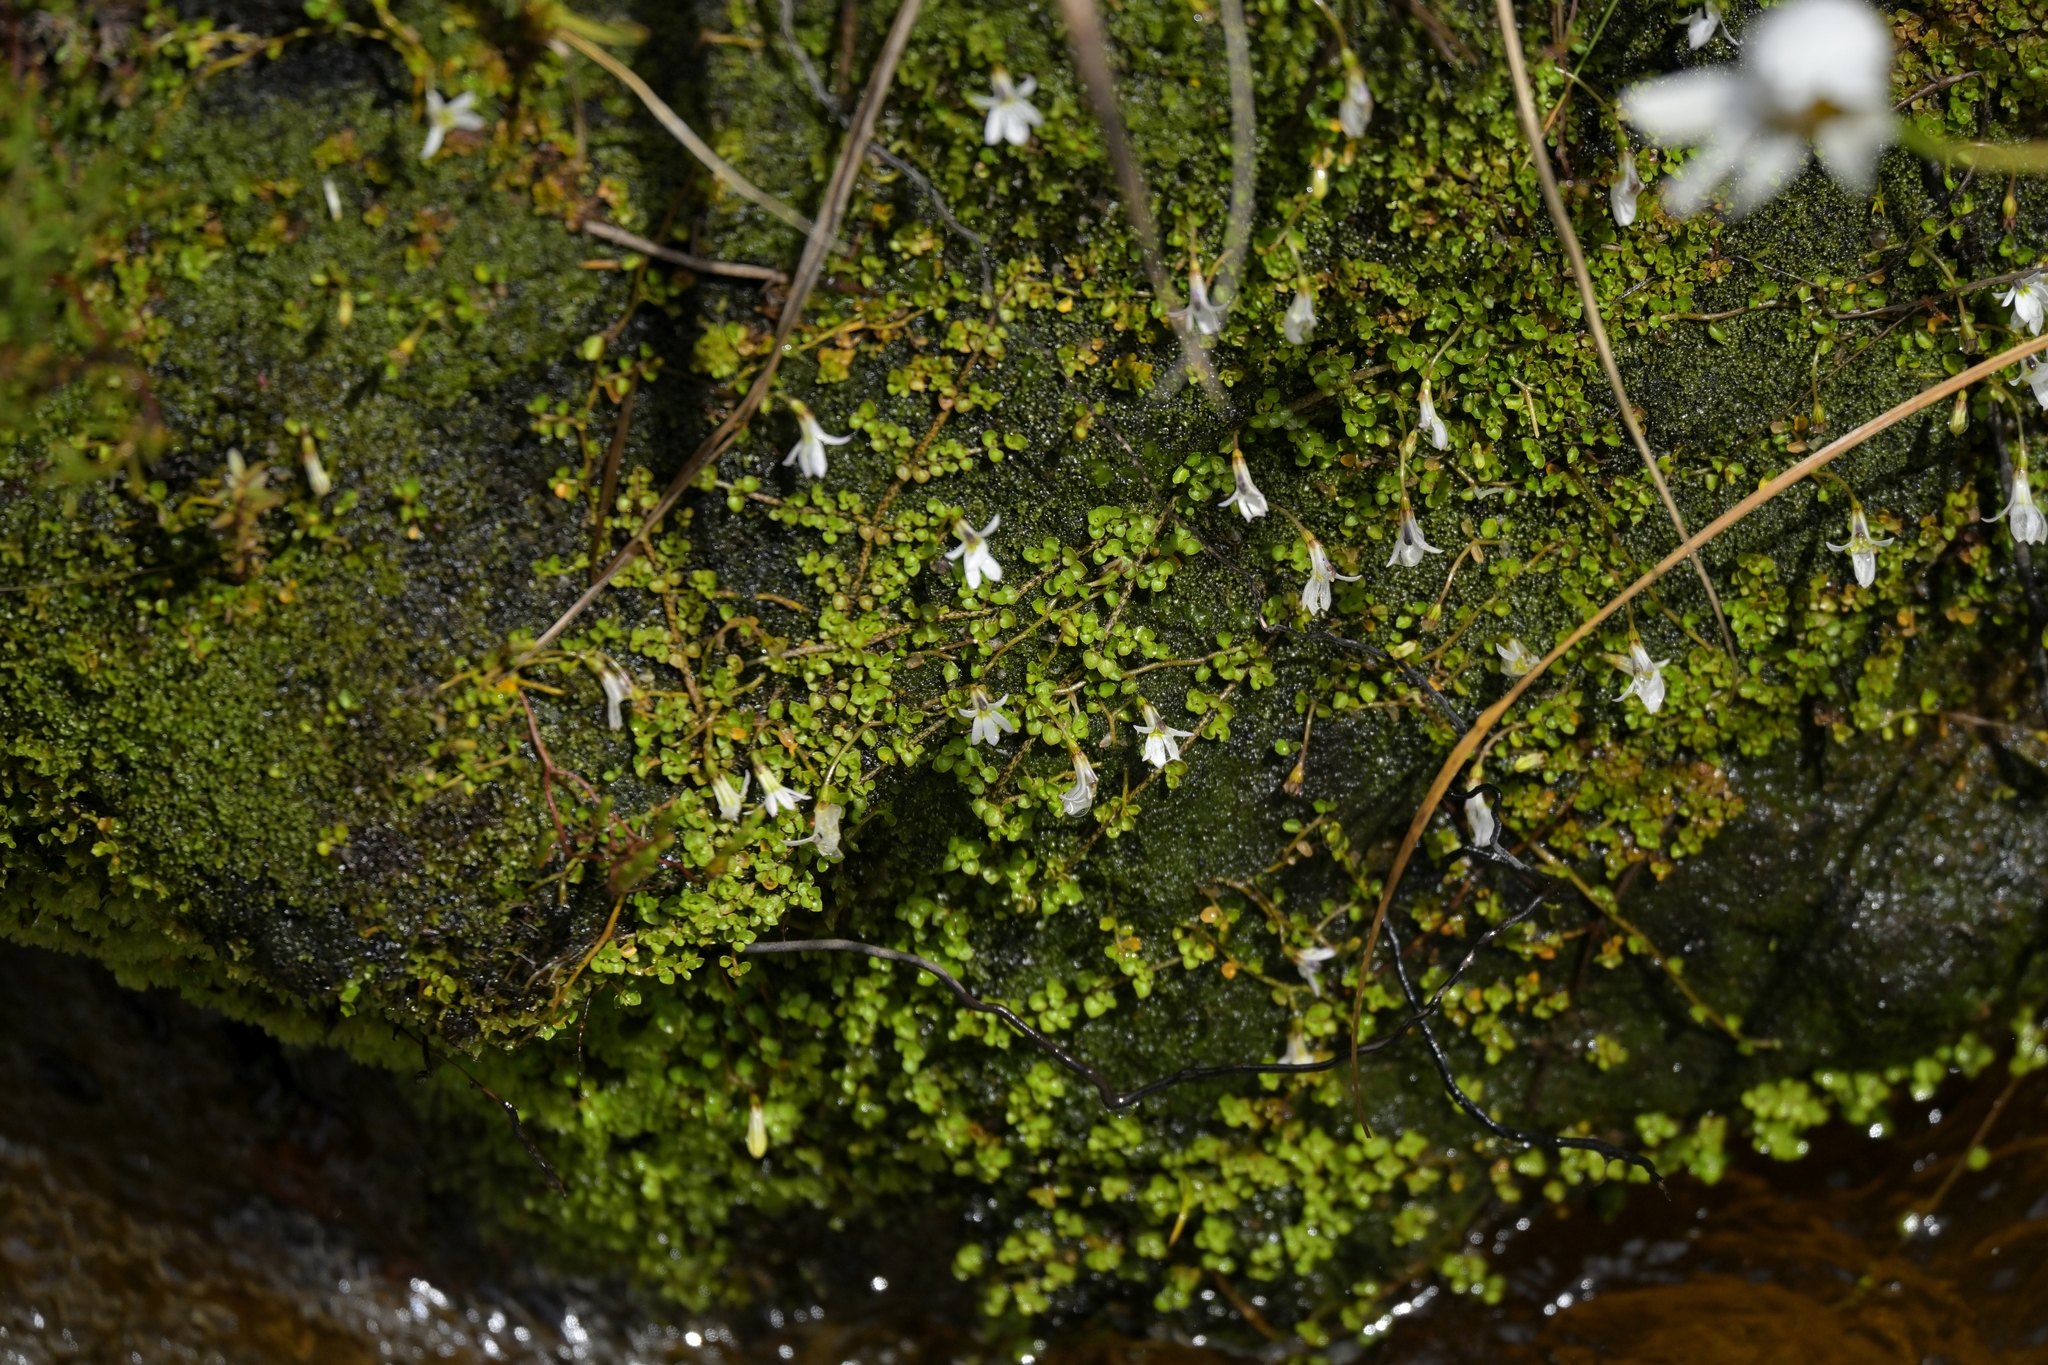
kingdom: Plantae
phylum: Tracheophyta
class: Magnoliopsida
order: Asterales
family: Campanulaceae
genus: Lobelia
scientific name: Lobelia angulata
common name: Lawn lobelia
